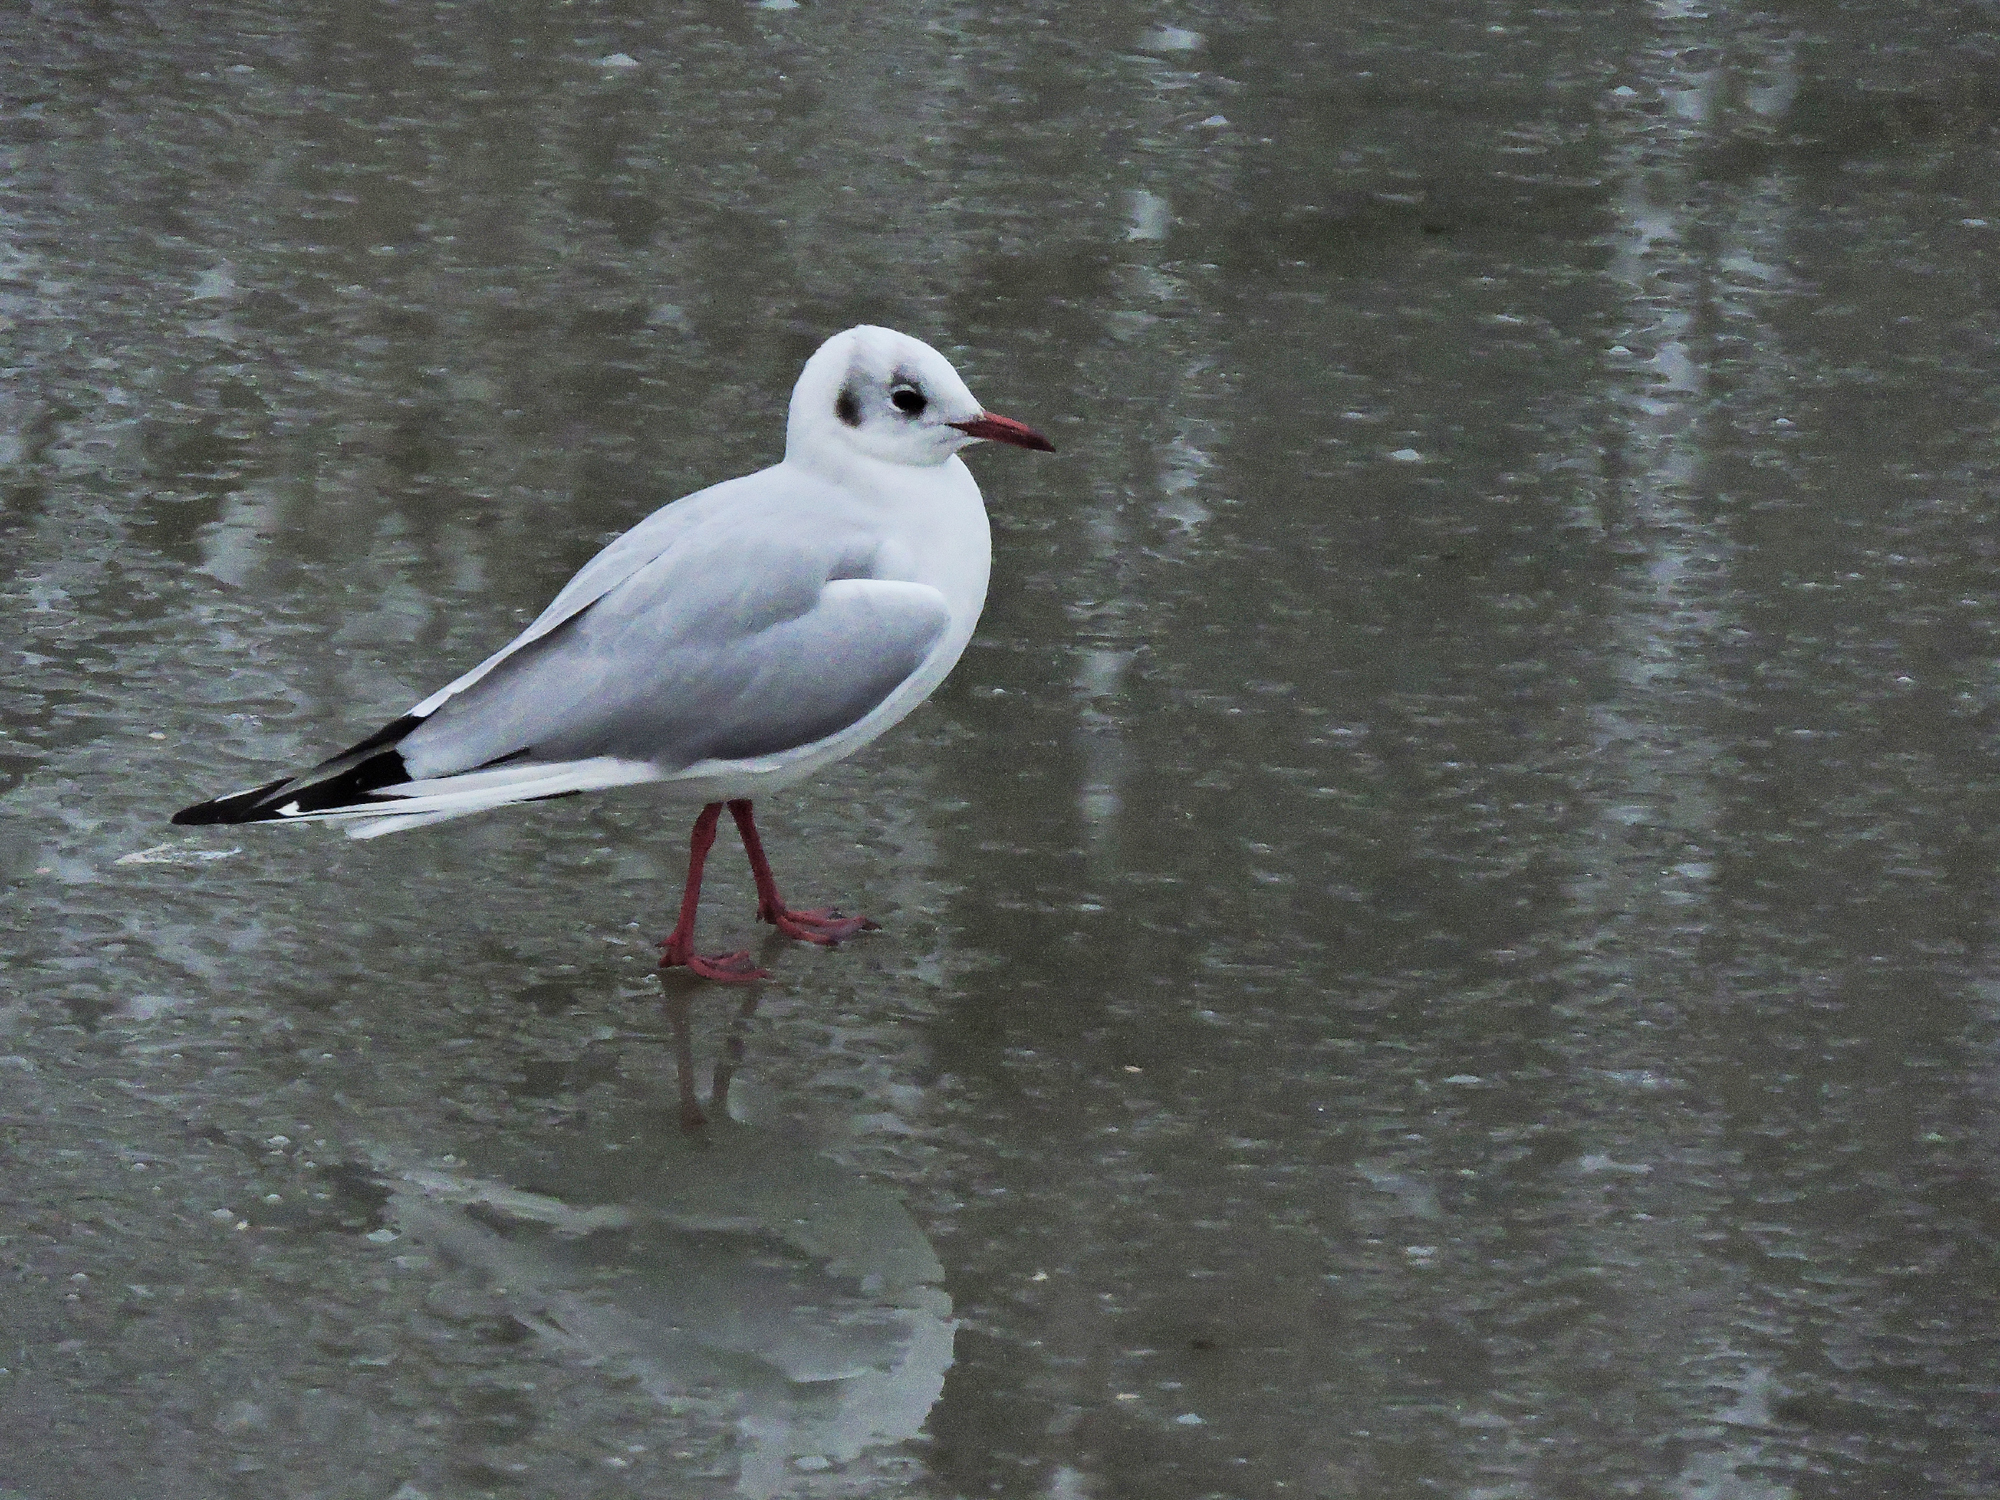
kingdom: Animalia
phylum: Chordata
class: Aves
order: Charadriiformes
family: Laridae
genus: Chroicocephalus
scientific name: Chroicocephalus ridibundus
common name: Black-headed gull
